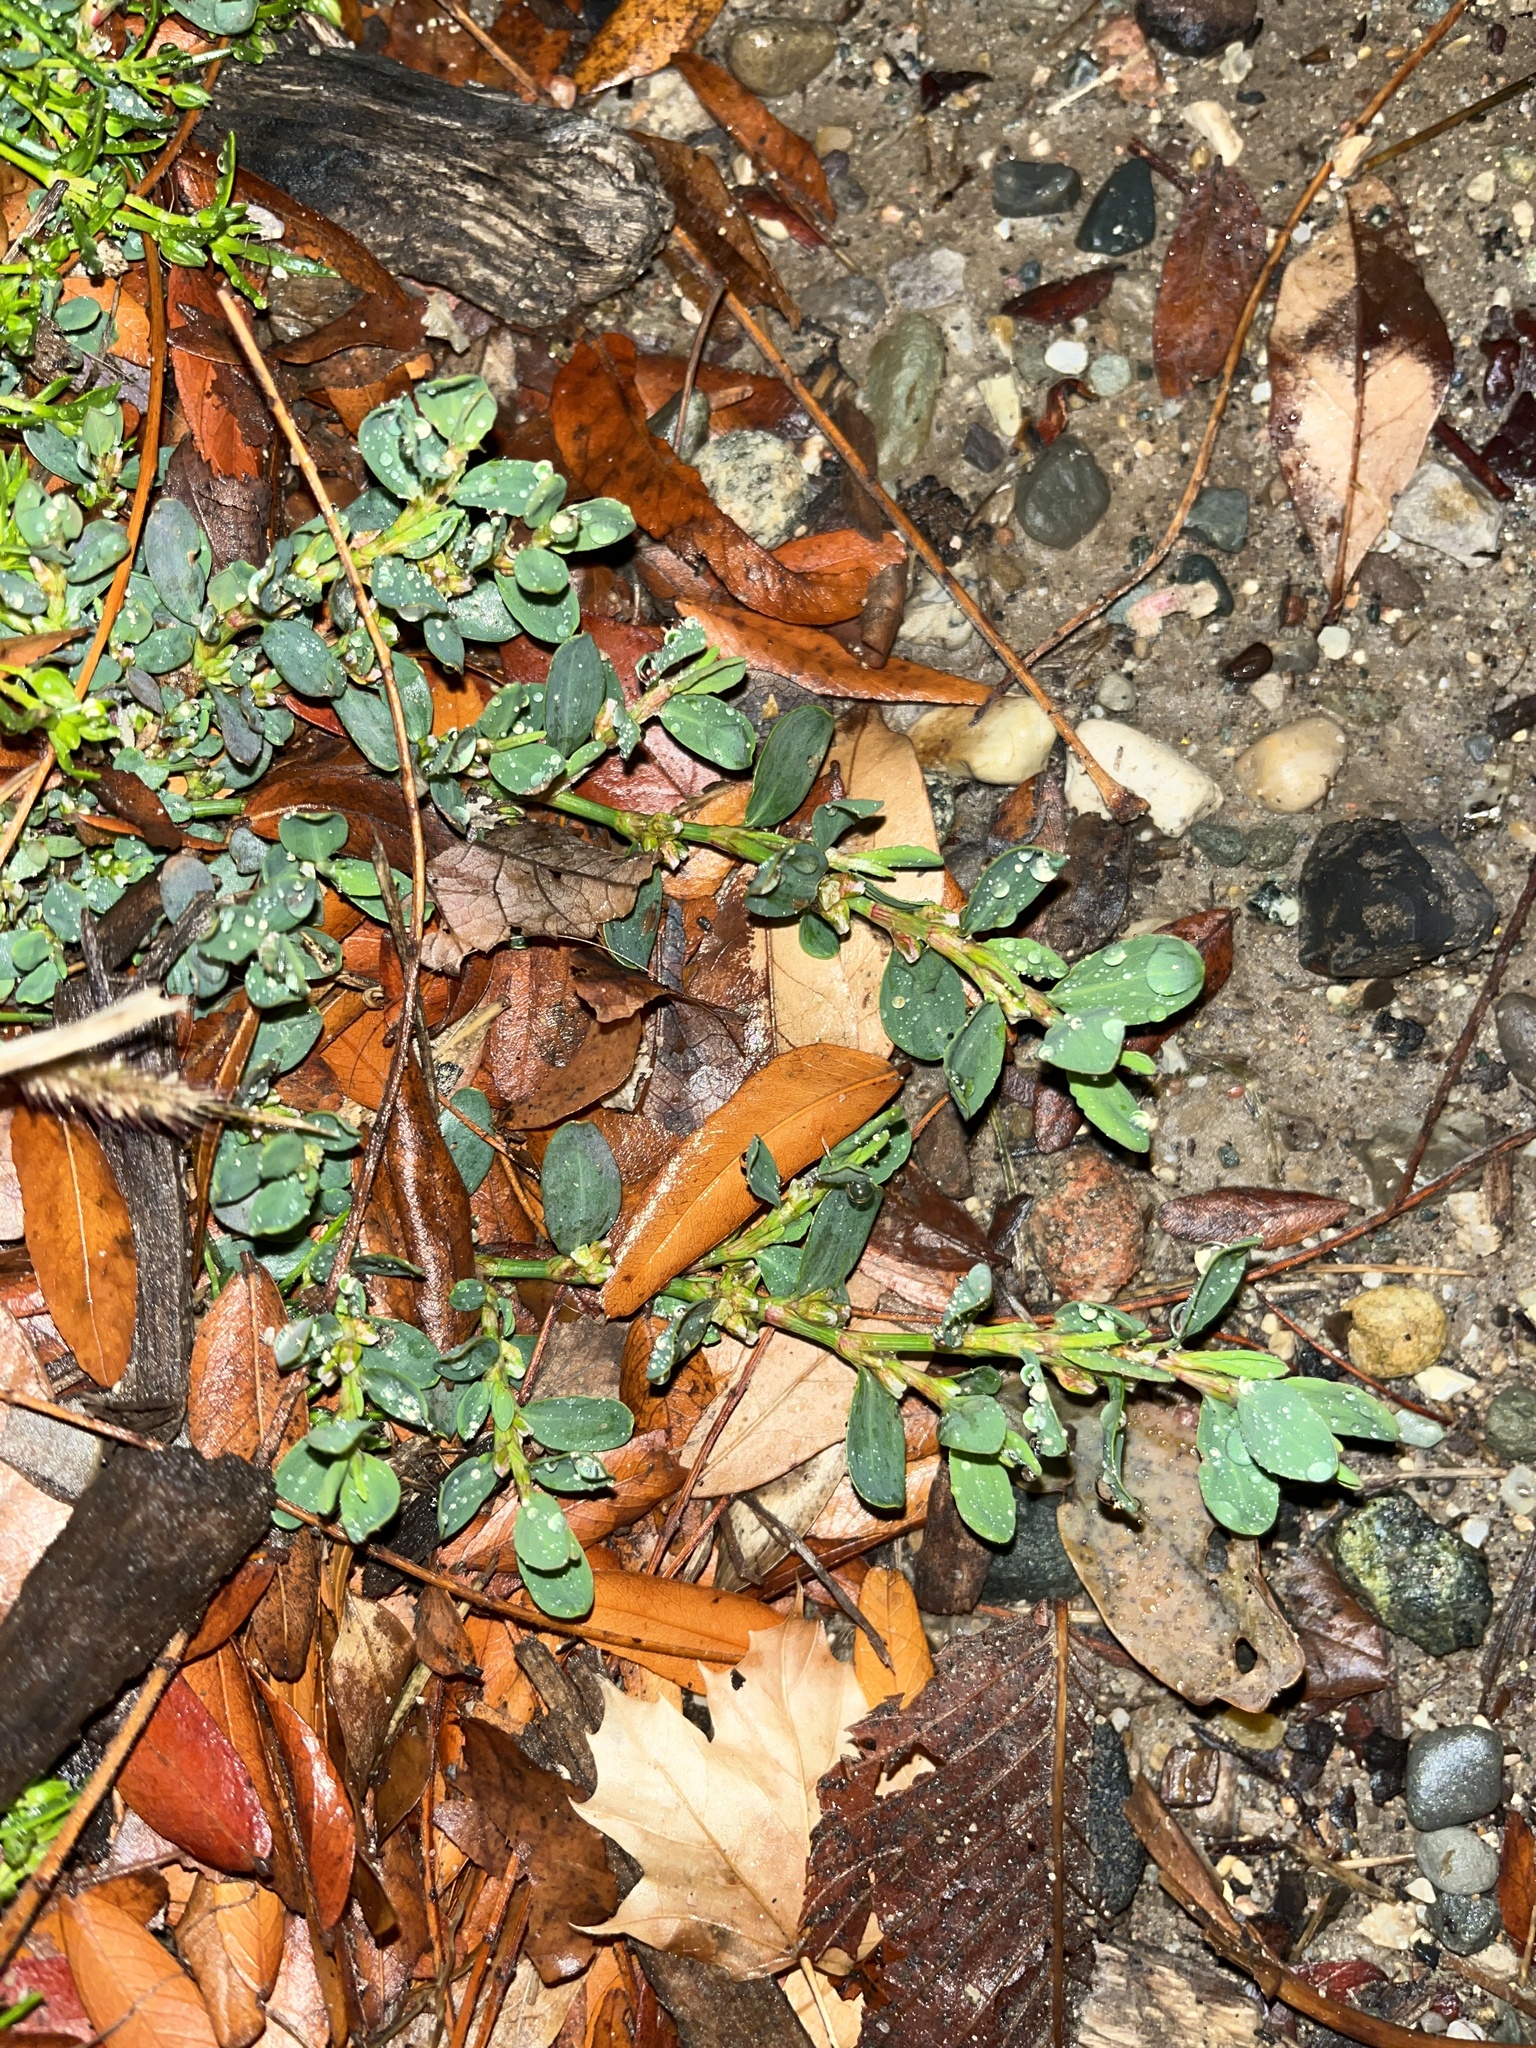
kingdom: Plantae
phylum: Tracheophyta
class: Magnoliopsida
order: Caryophyllales
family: Polygonaceae
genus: Polygonum
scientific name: Polygonum aviculare
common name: Prostrate knotweed
